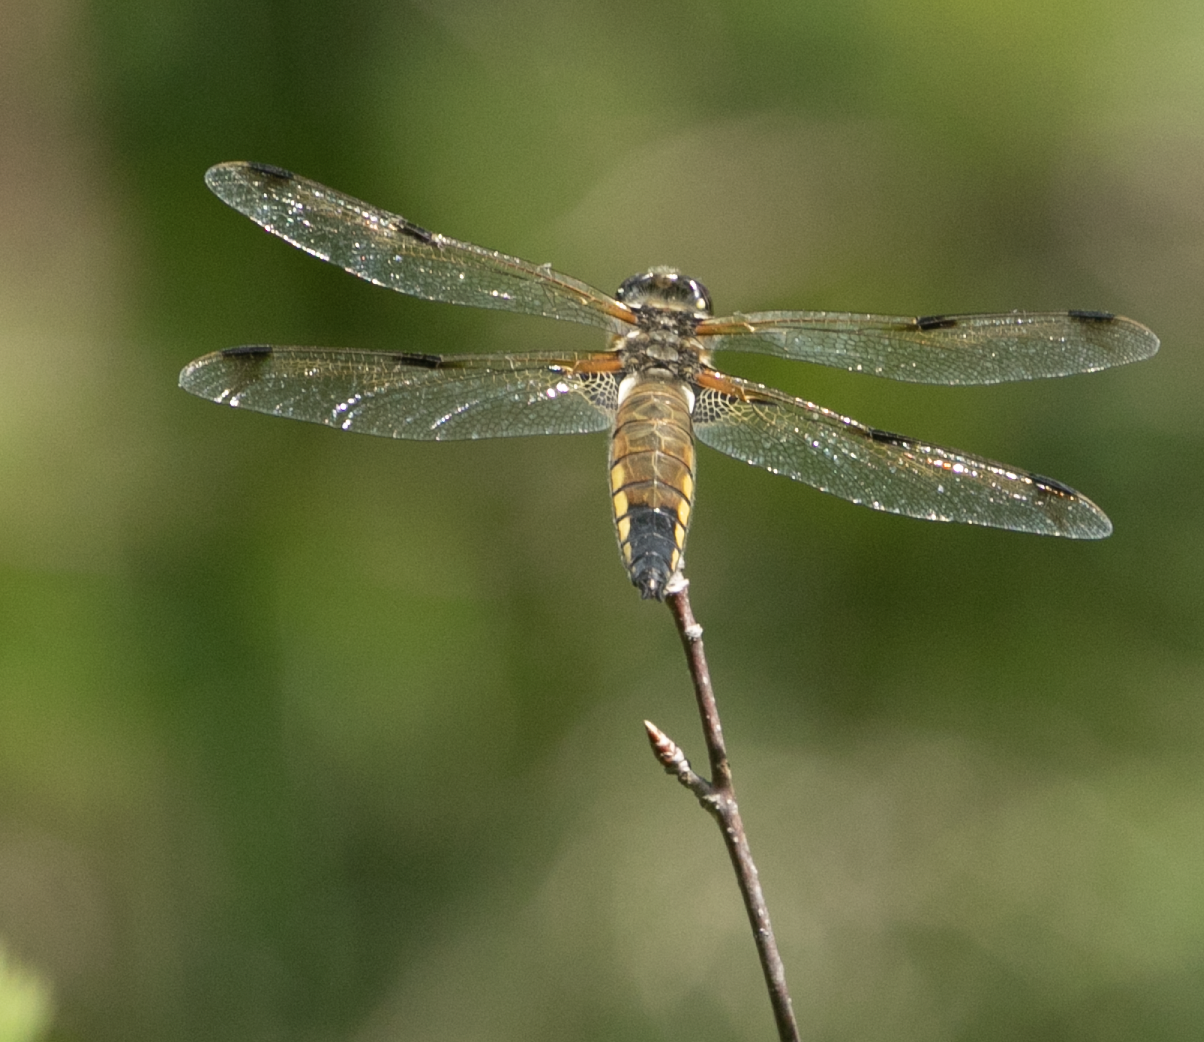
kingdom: Animalia
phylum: Arthropoda
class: Insecta
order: Odonata
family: Libellulidae
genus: Libellula
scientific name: Libellula quadrimaculata
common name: Four-spotted chaser
